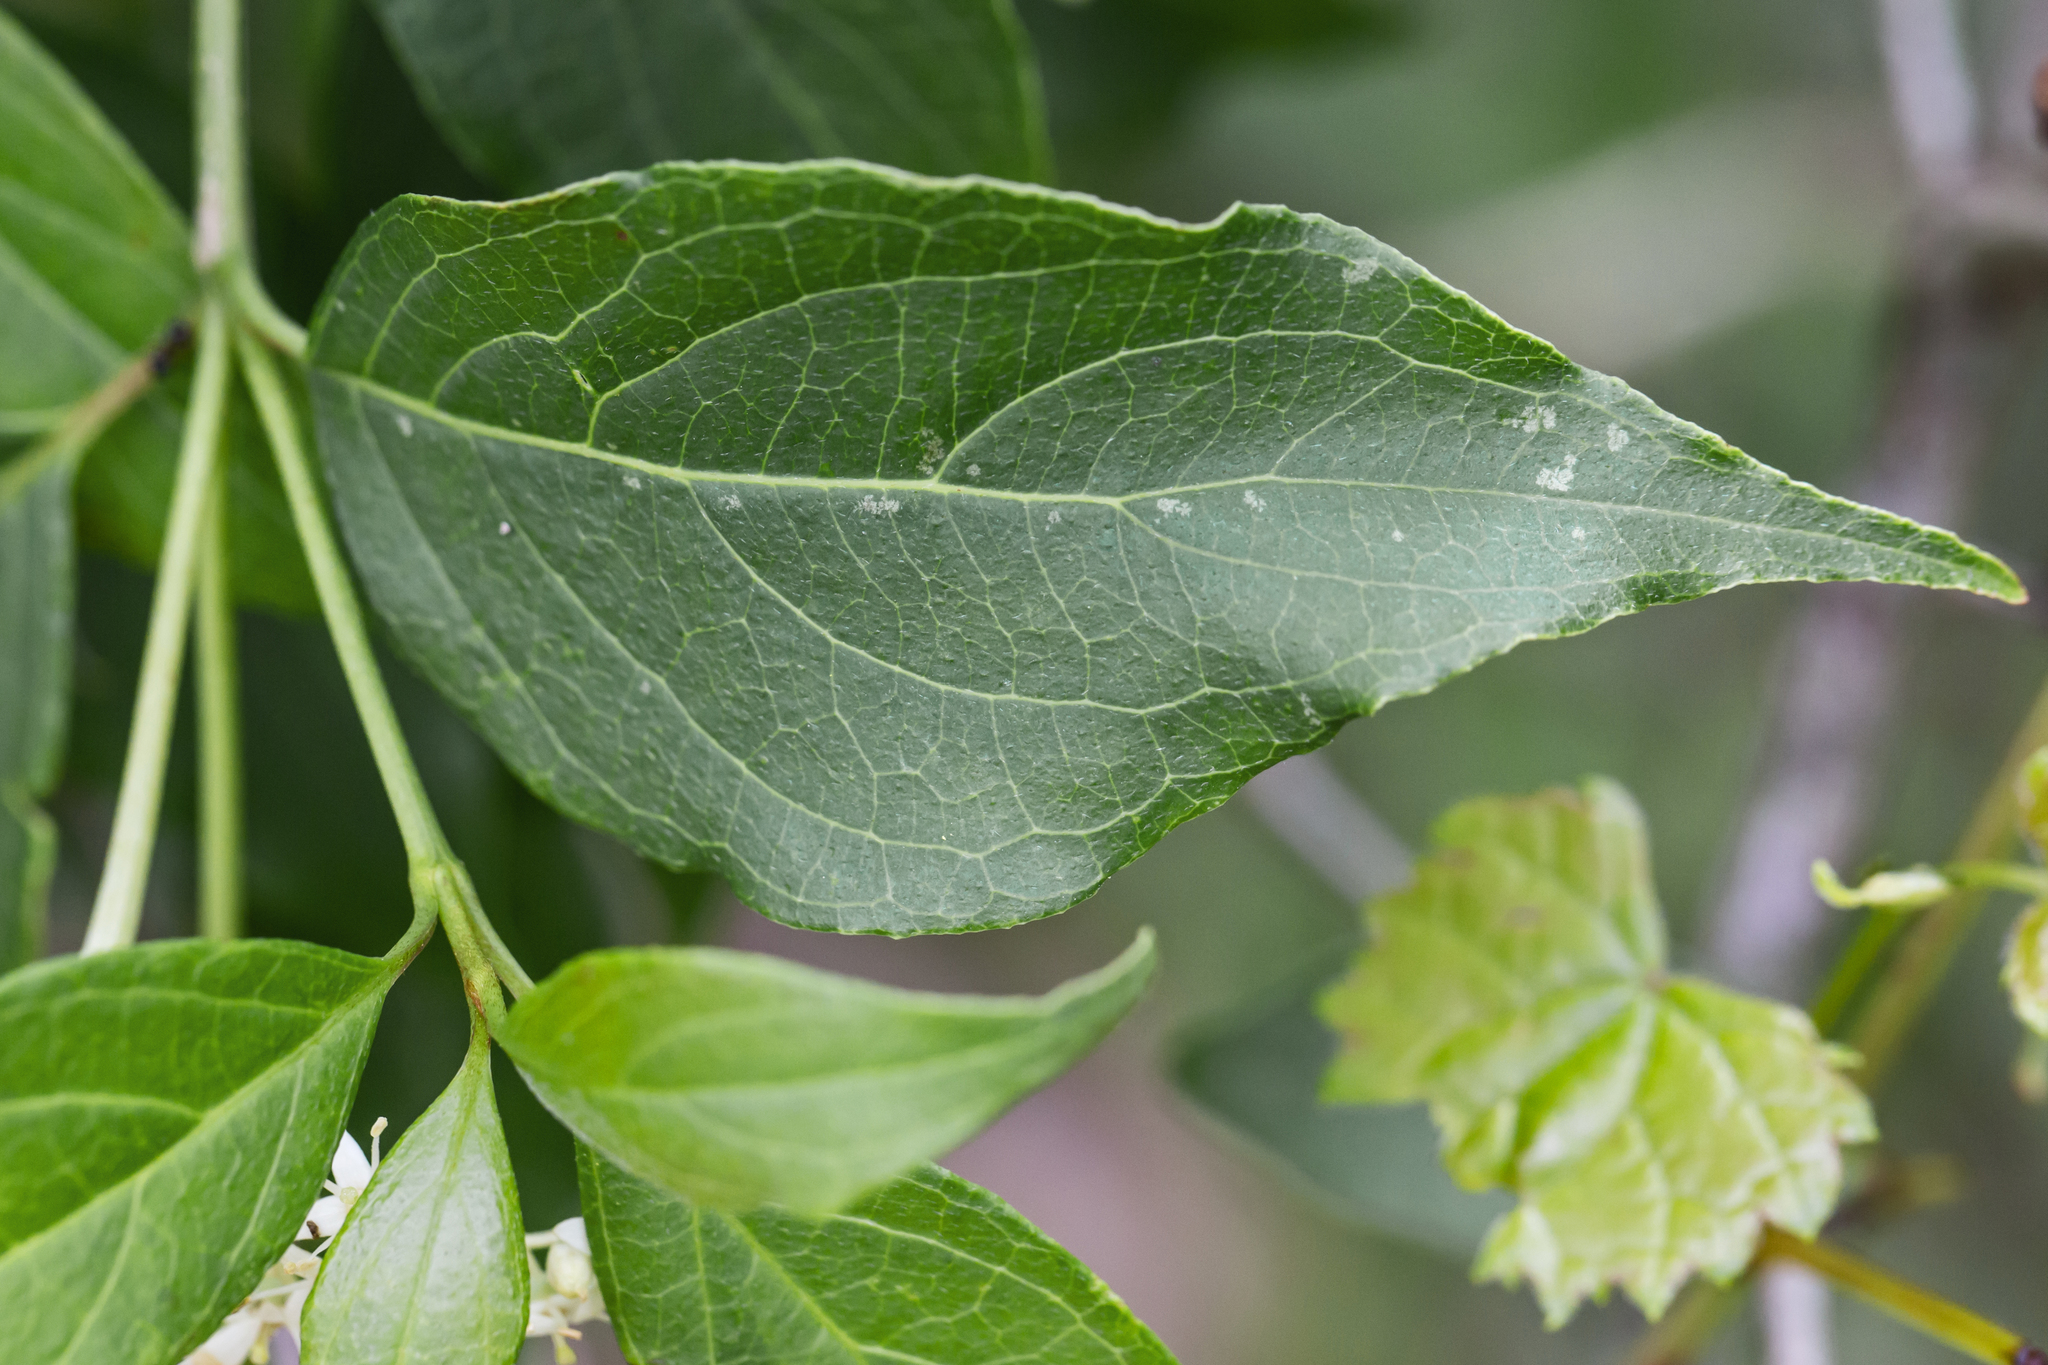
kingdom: Plantae
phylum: Tracheophyta
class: Magnoliopsida
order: Cornales
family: Cornaceae
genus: Cornus
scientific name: Cornus racemosa
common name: Panicled dogwood
